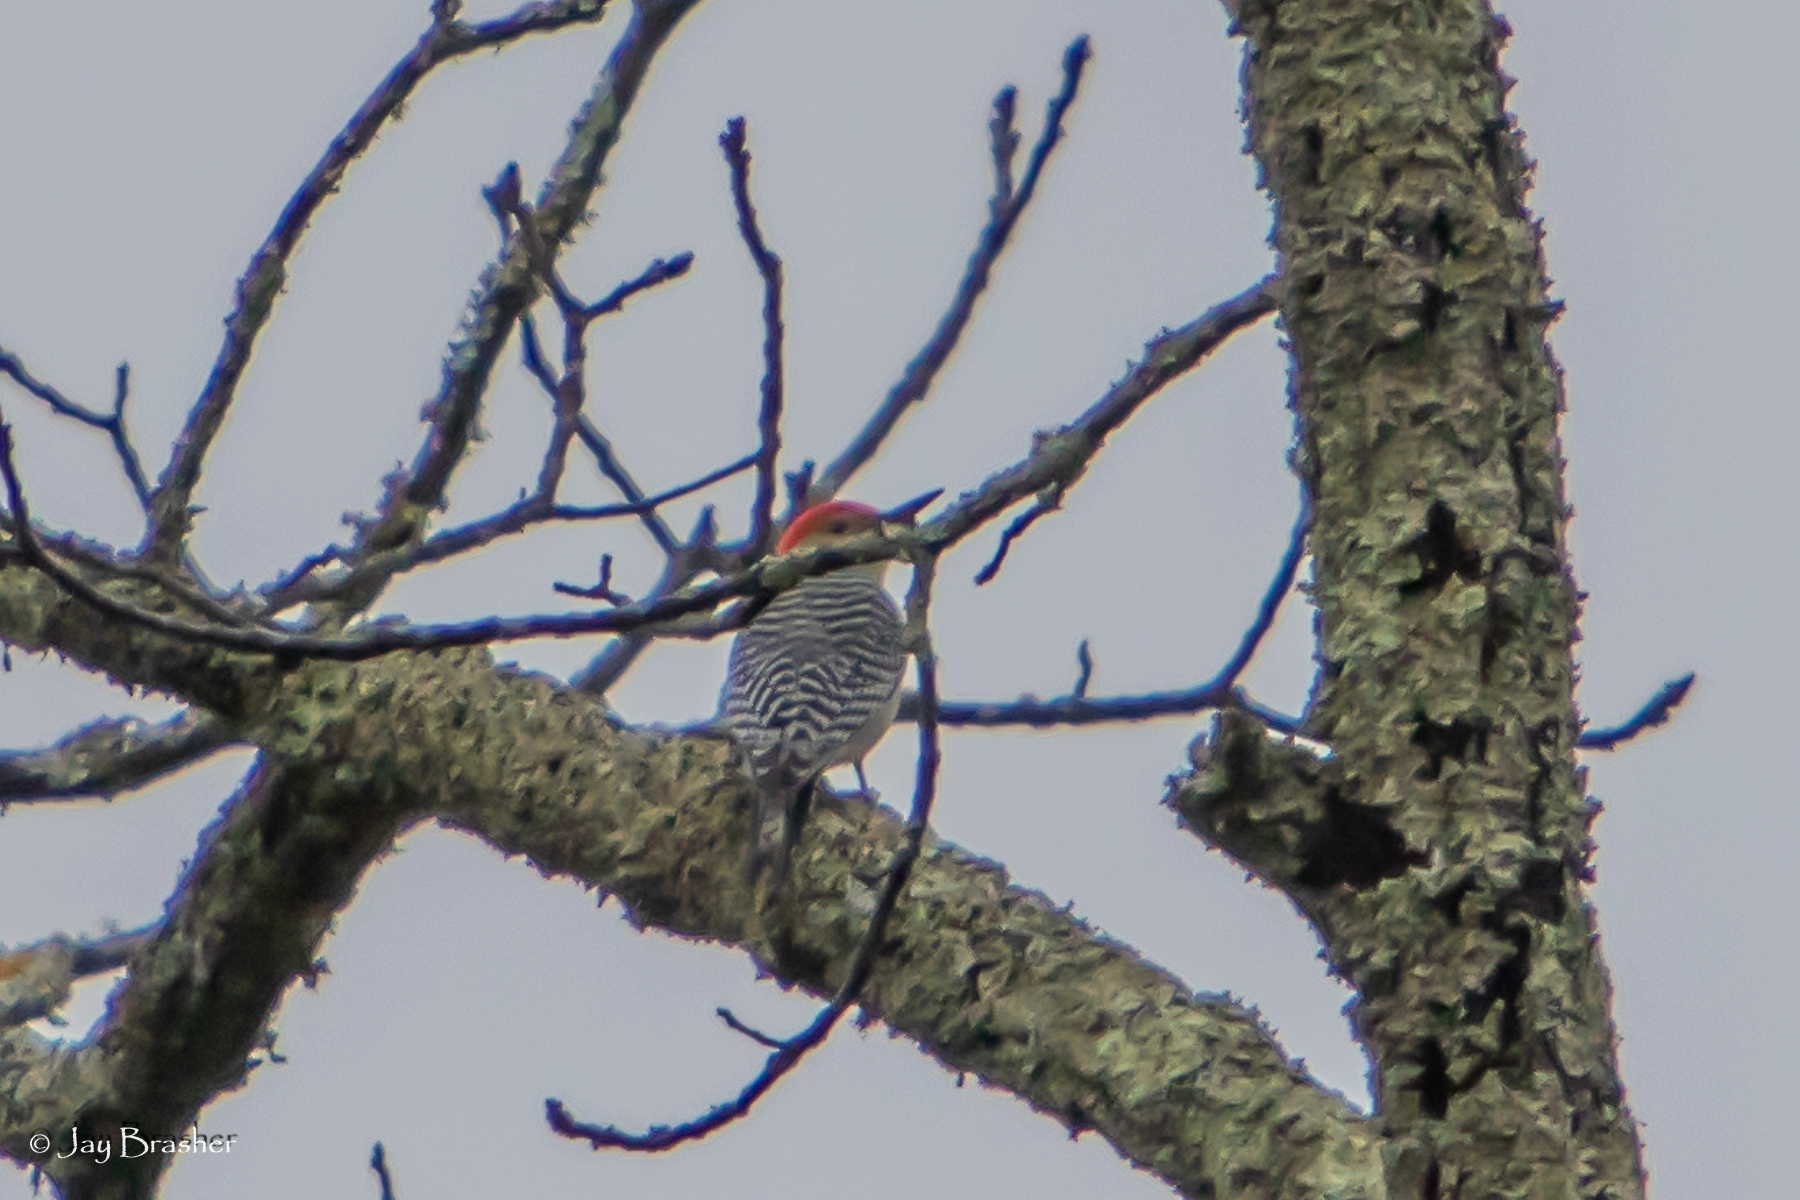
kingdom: Animalia
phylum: Chordata
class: Aves
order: Piciformes
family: Picidae
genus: Melanerpes
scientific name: Melanerpes carolinus
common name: Red-bellied woodpecker
